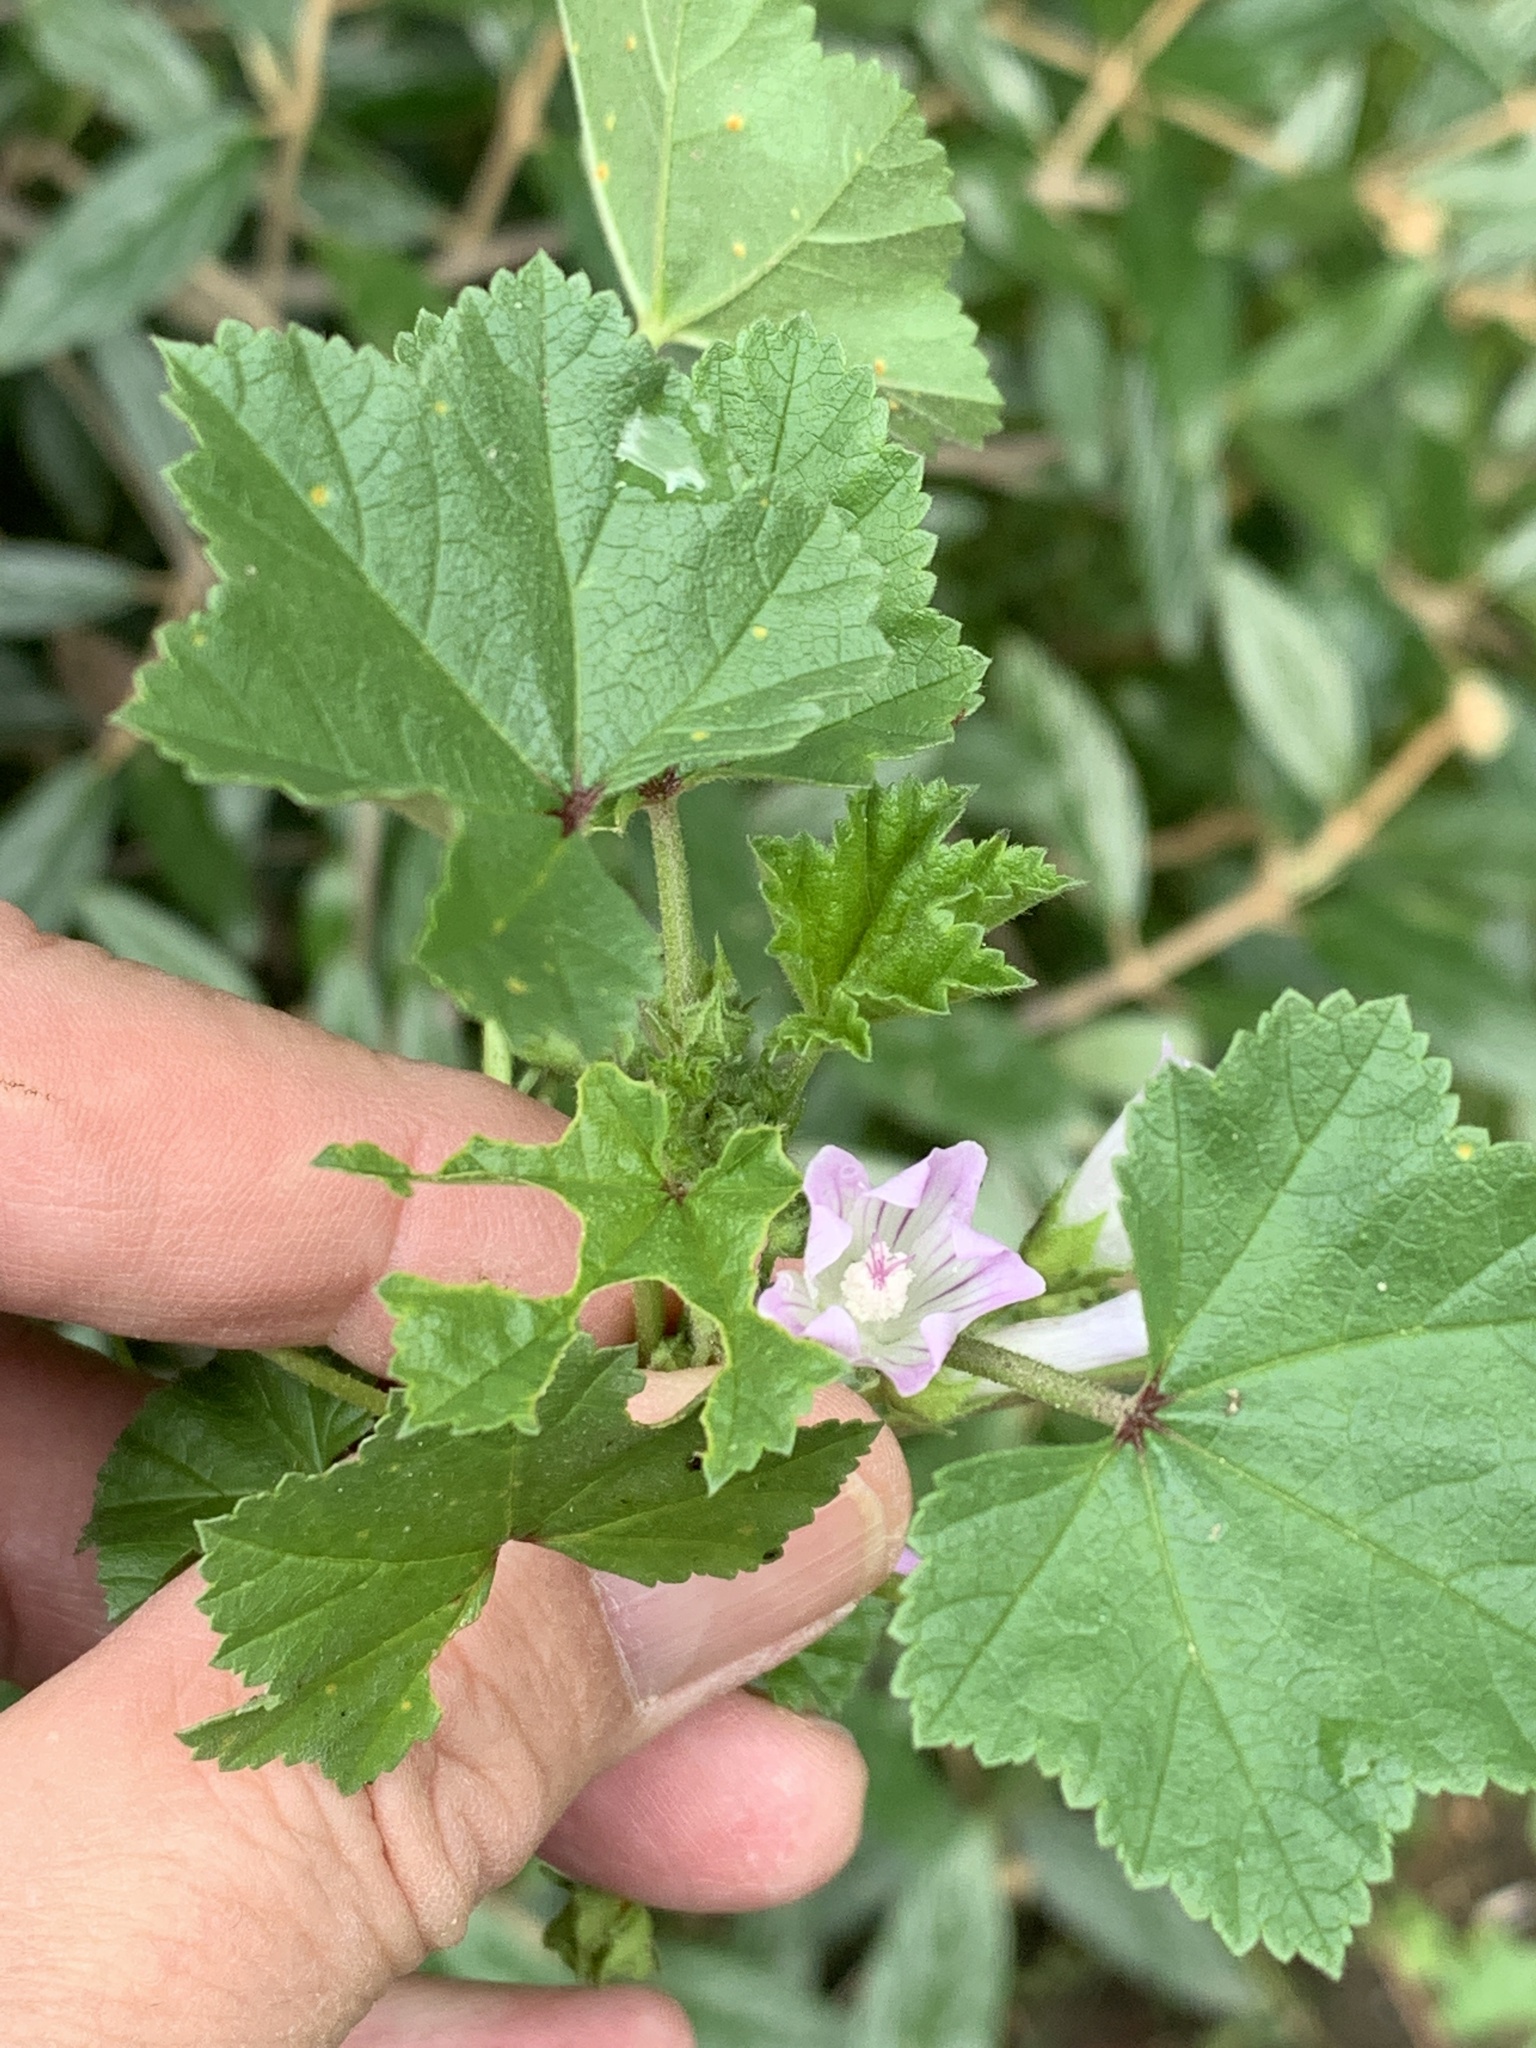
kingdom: Plantae
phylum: Tracheophyta
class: Magnoliopsida
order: Malvales
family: Malvaceae
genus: Malva
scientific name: Malva neglecta
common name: Common mallow
